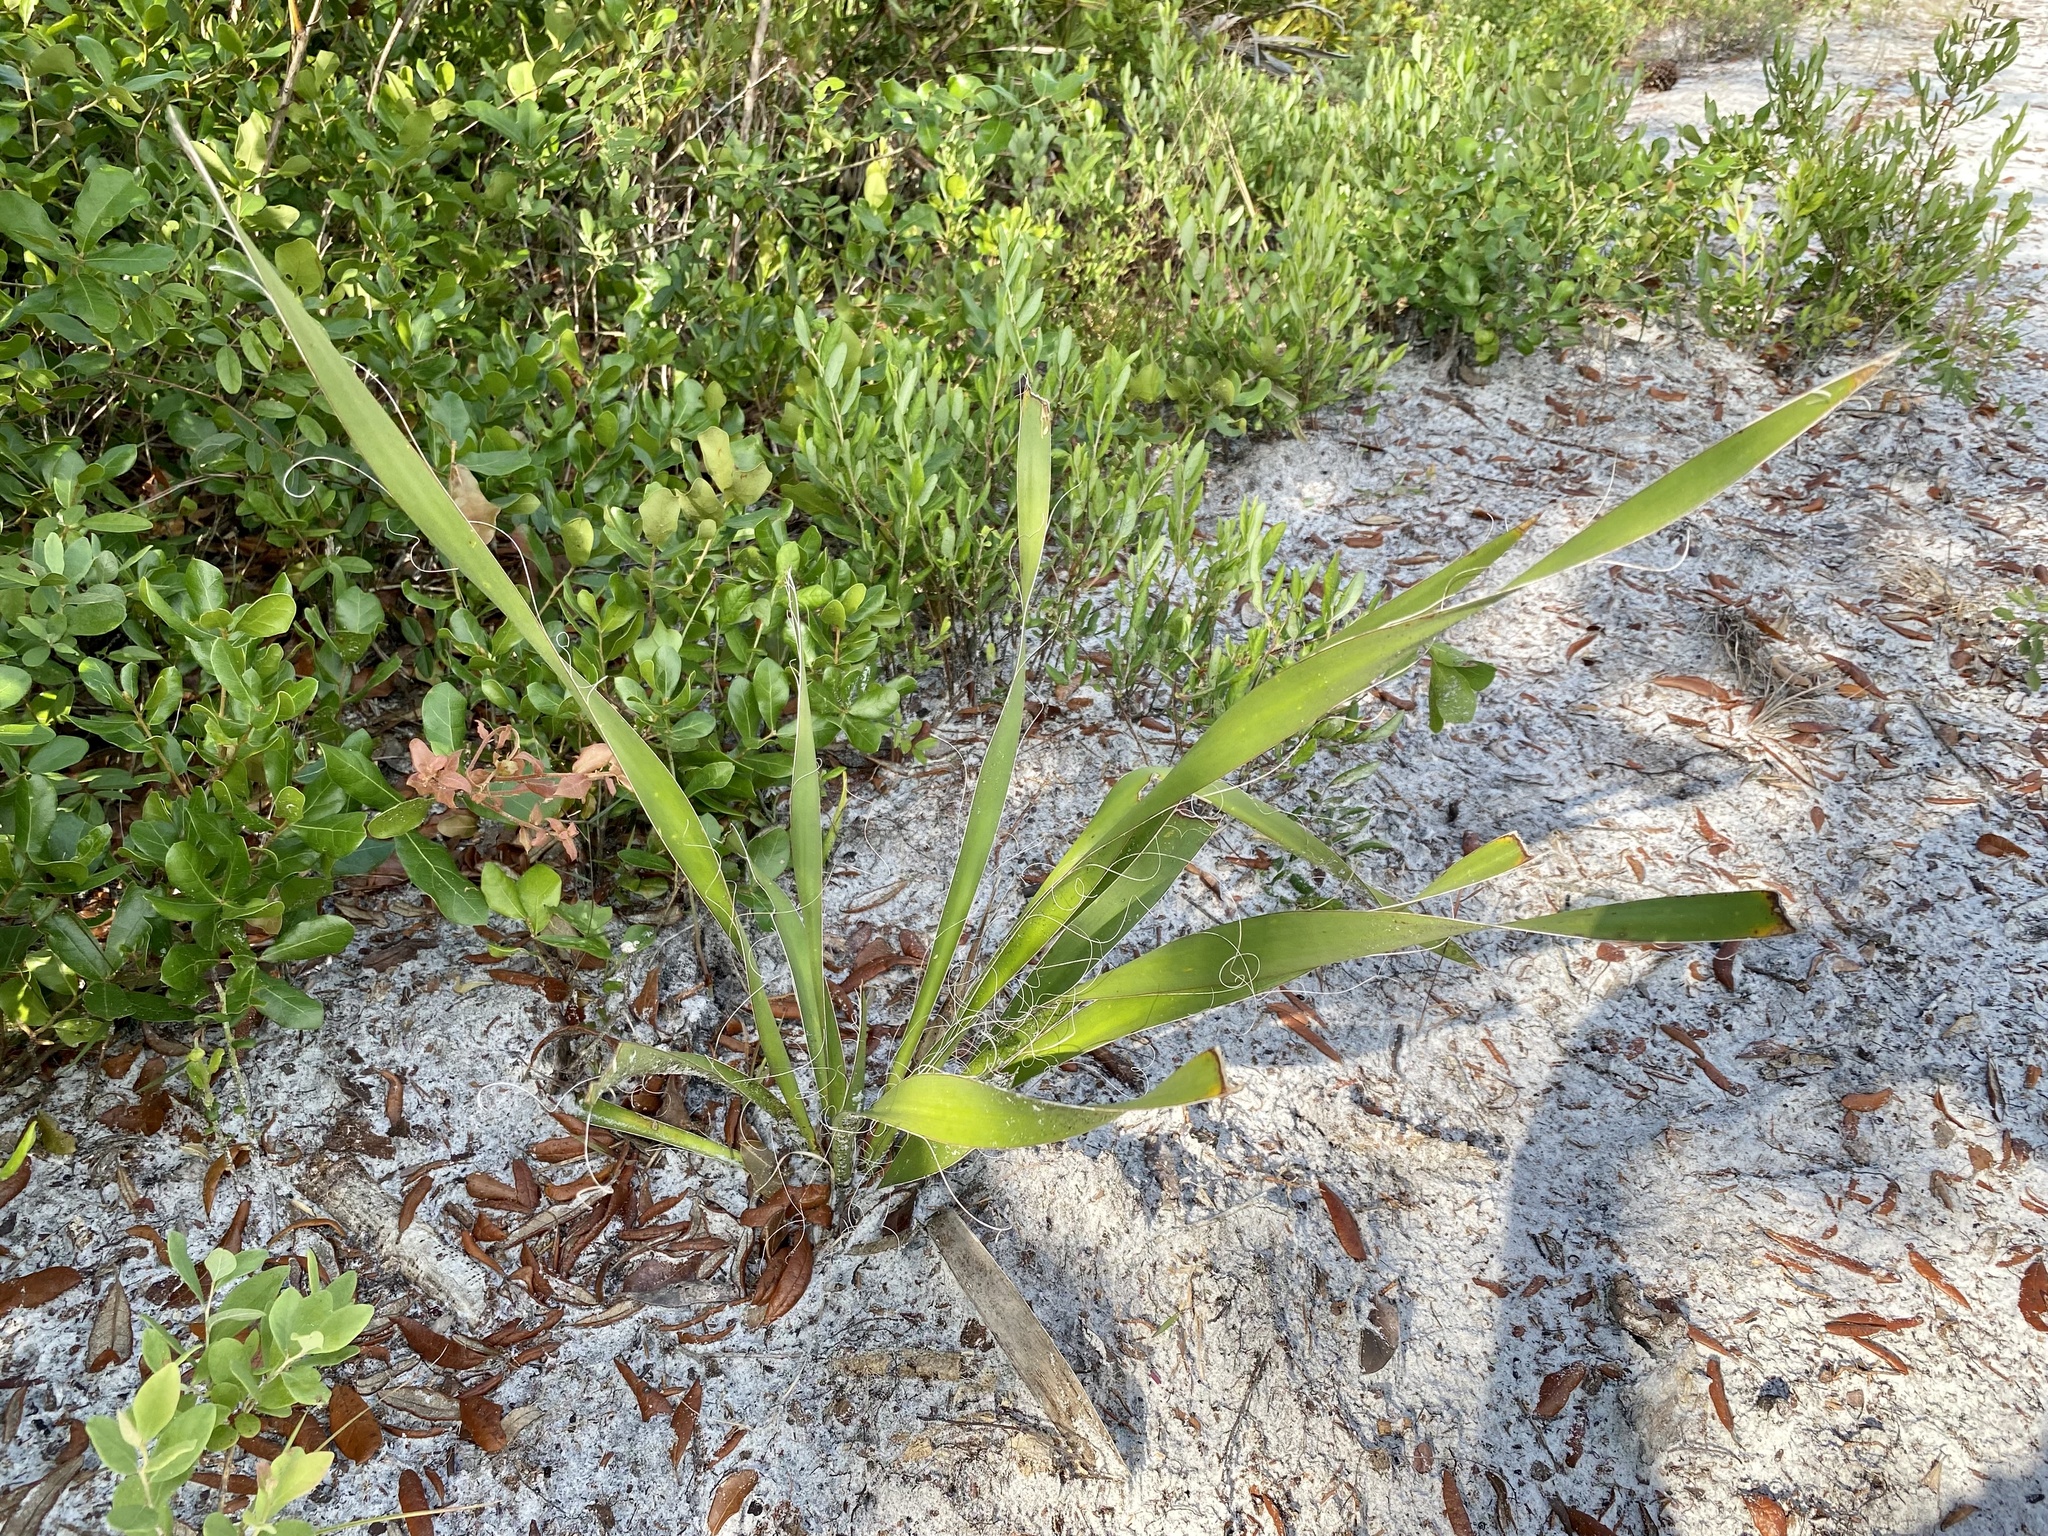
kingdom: Plantae
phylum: Tracheophyta
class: Liliopsida
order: Asparagales
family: Asparagaceae
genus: Yucca
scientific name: Yucca filamentosa
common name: Adam's-needle
